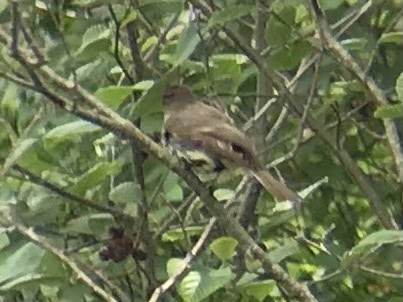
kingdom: Animalia
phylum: Chordata
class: Aves
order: Passeriformes
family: Tyrannidae
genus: Sayornis
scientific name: Sayornis phoebe
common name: Eastern phoebe
